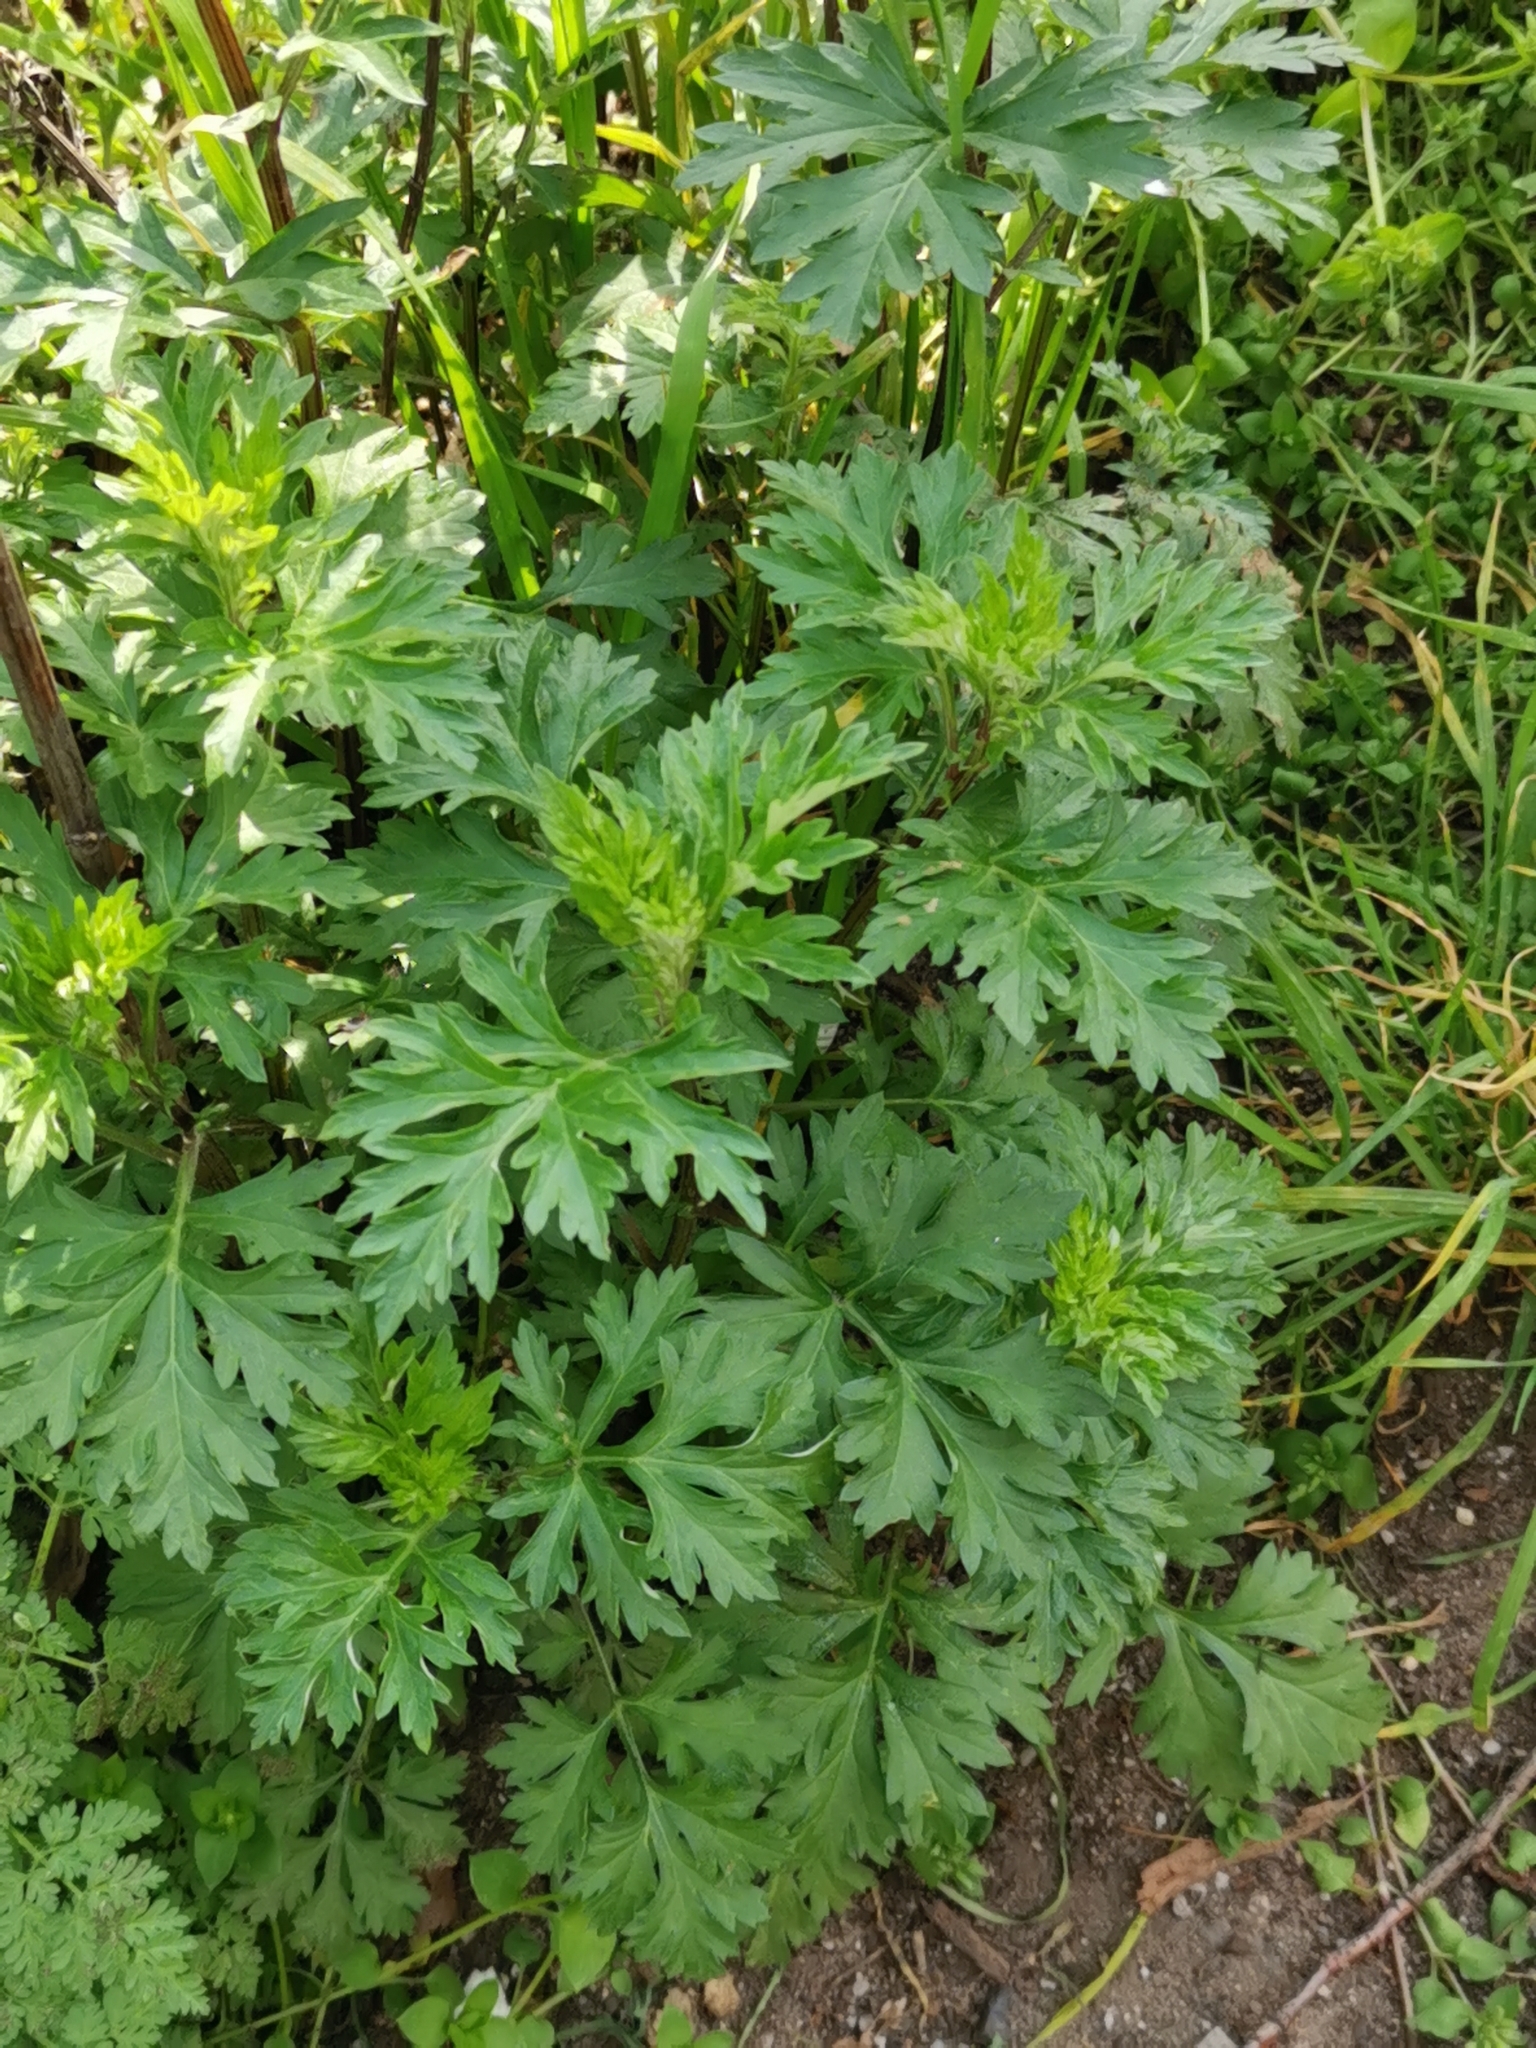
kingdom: Plantae
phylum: Tracheophyta
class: Magnoliopsida
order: Asterales
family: Asteraceae
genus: Artemisia
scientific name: Artemisia vulgaris
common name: Mugwort
